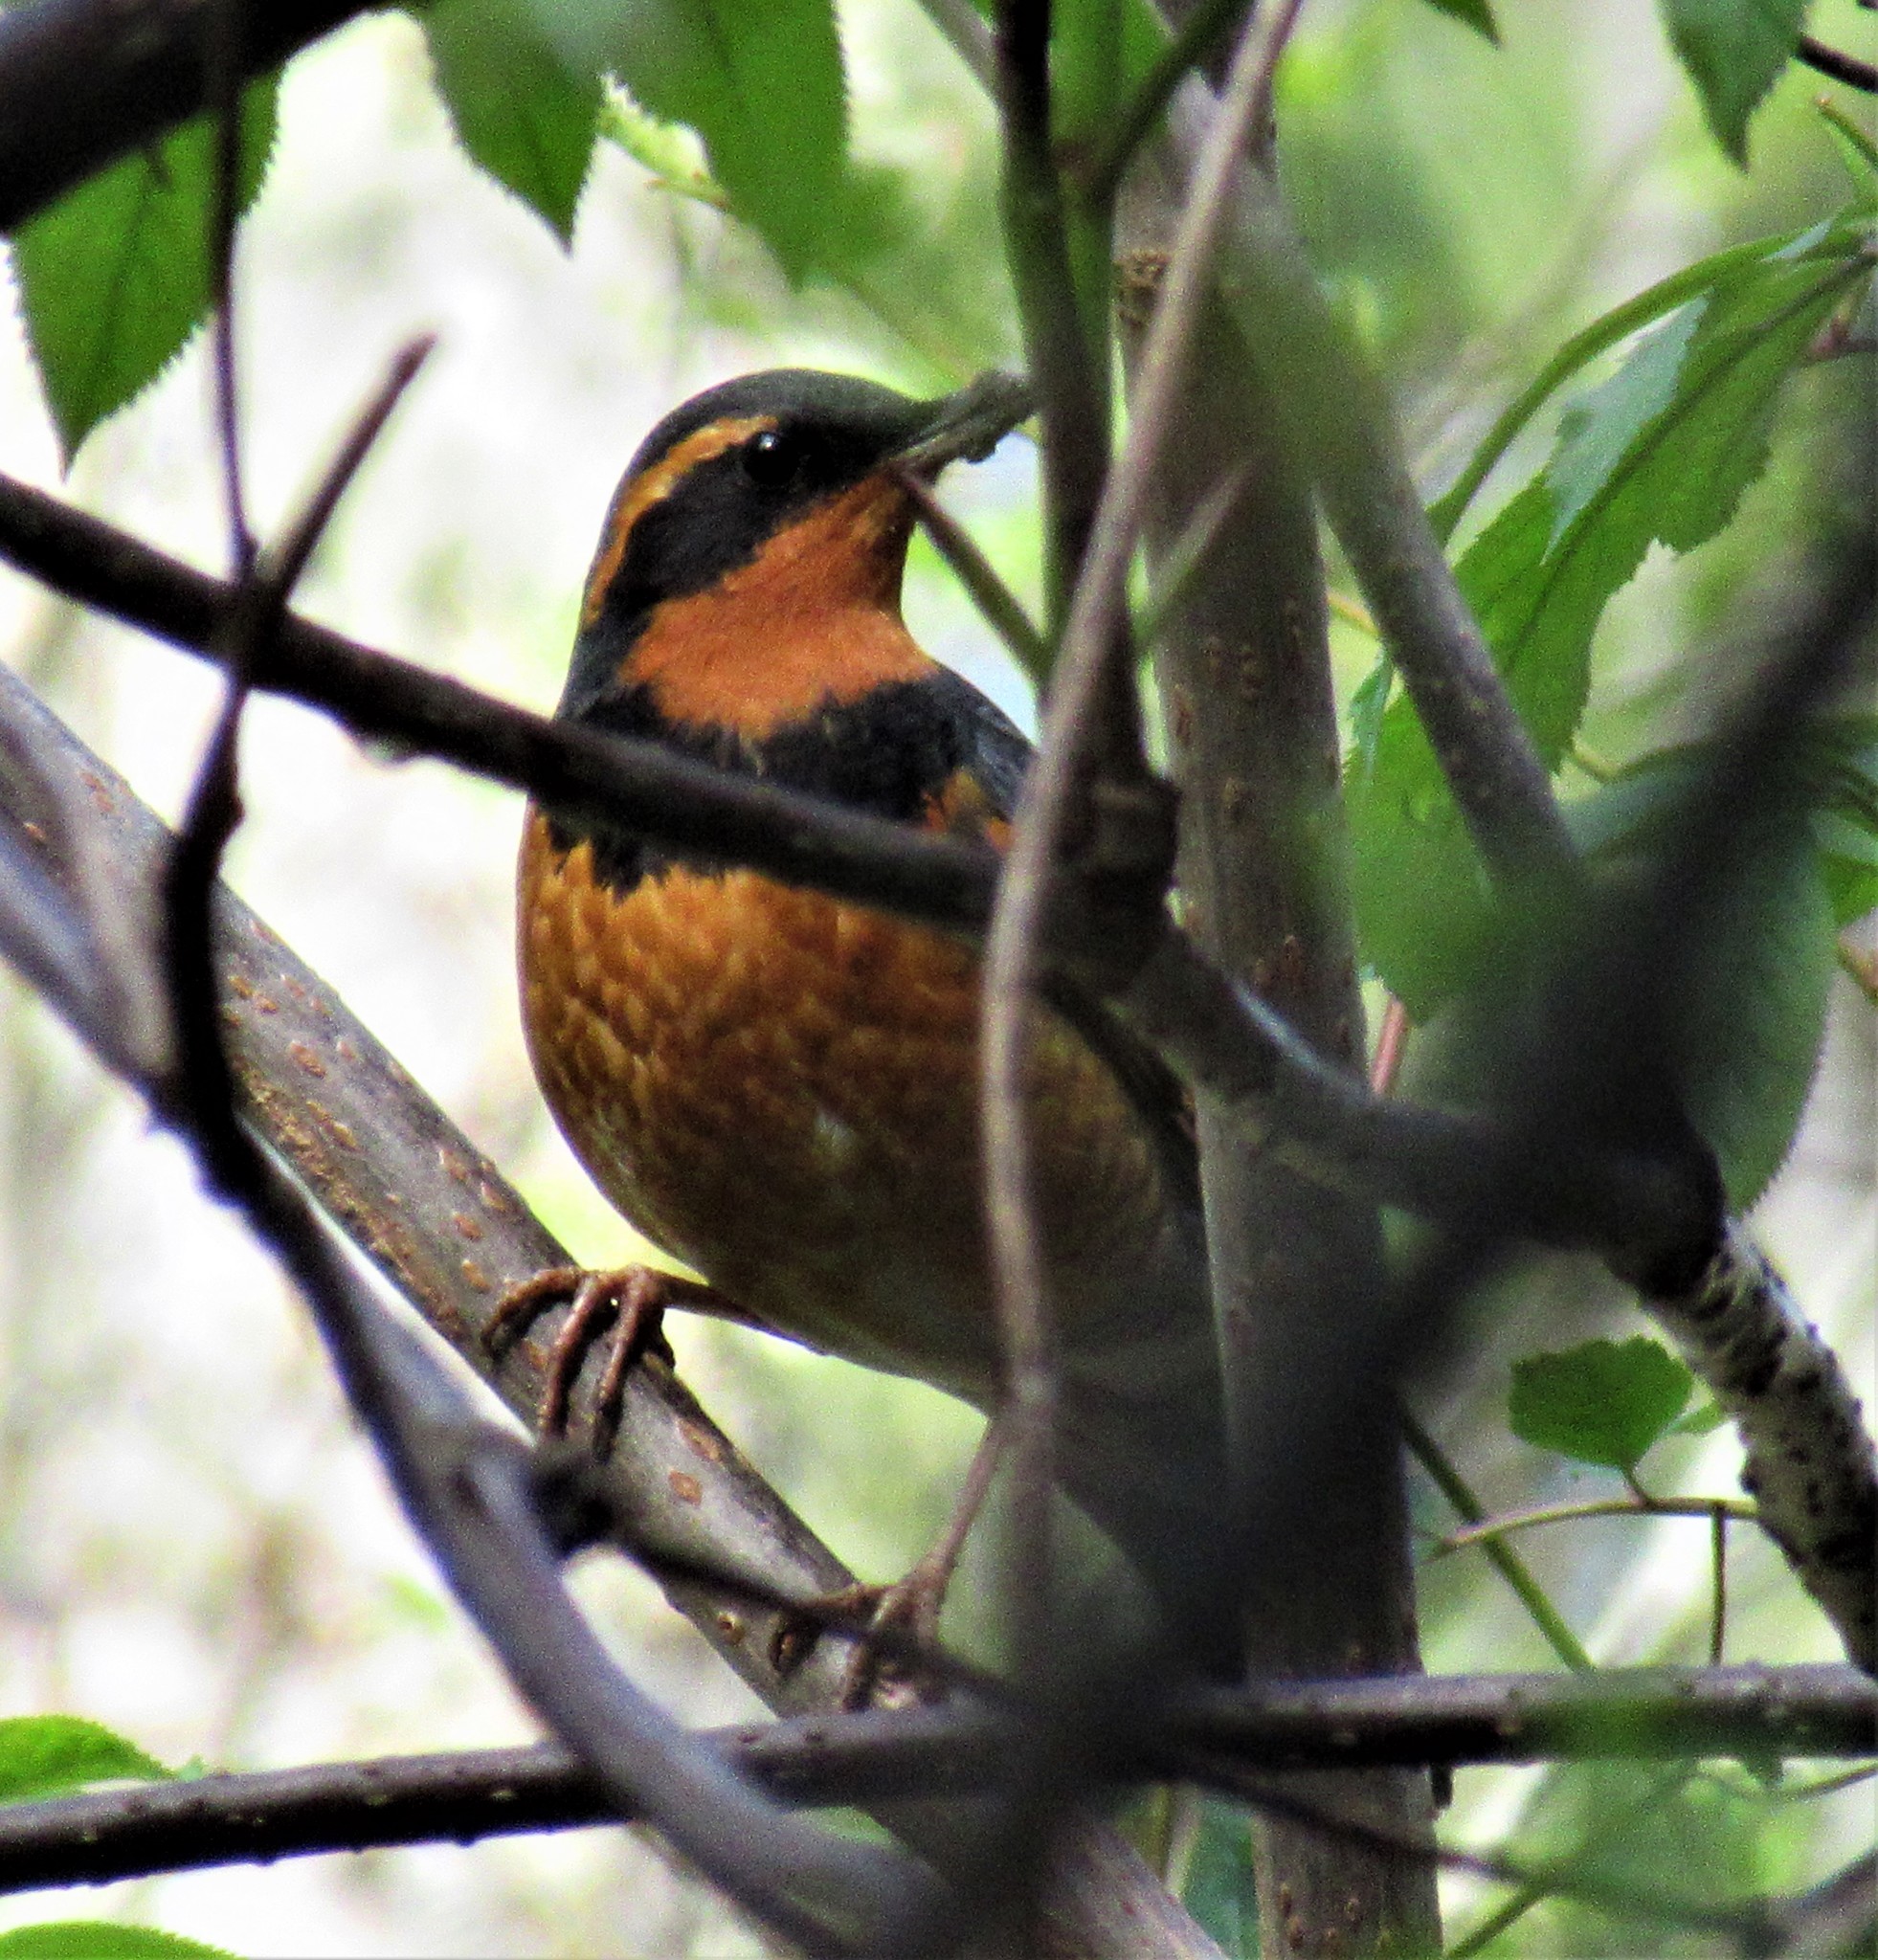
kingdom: Animalia
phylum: Chordata
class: Aves
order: Passeriformes
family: Turdidae
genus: Ixoreus
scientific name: Ixoreus naevius
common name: Varied thrush
